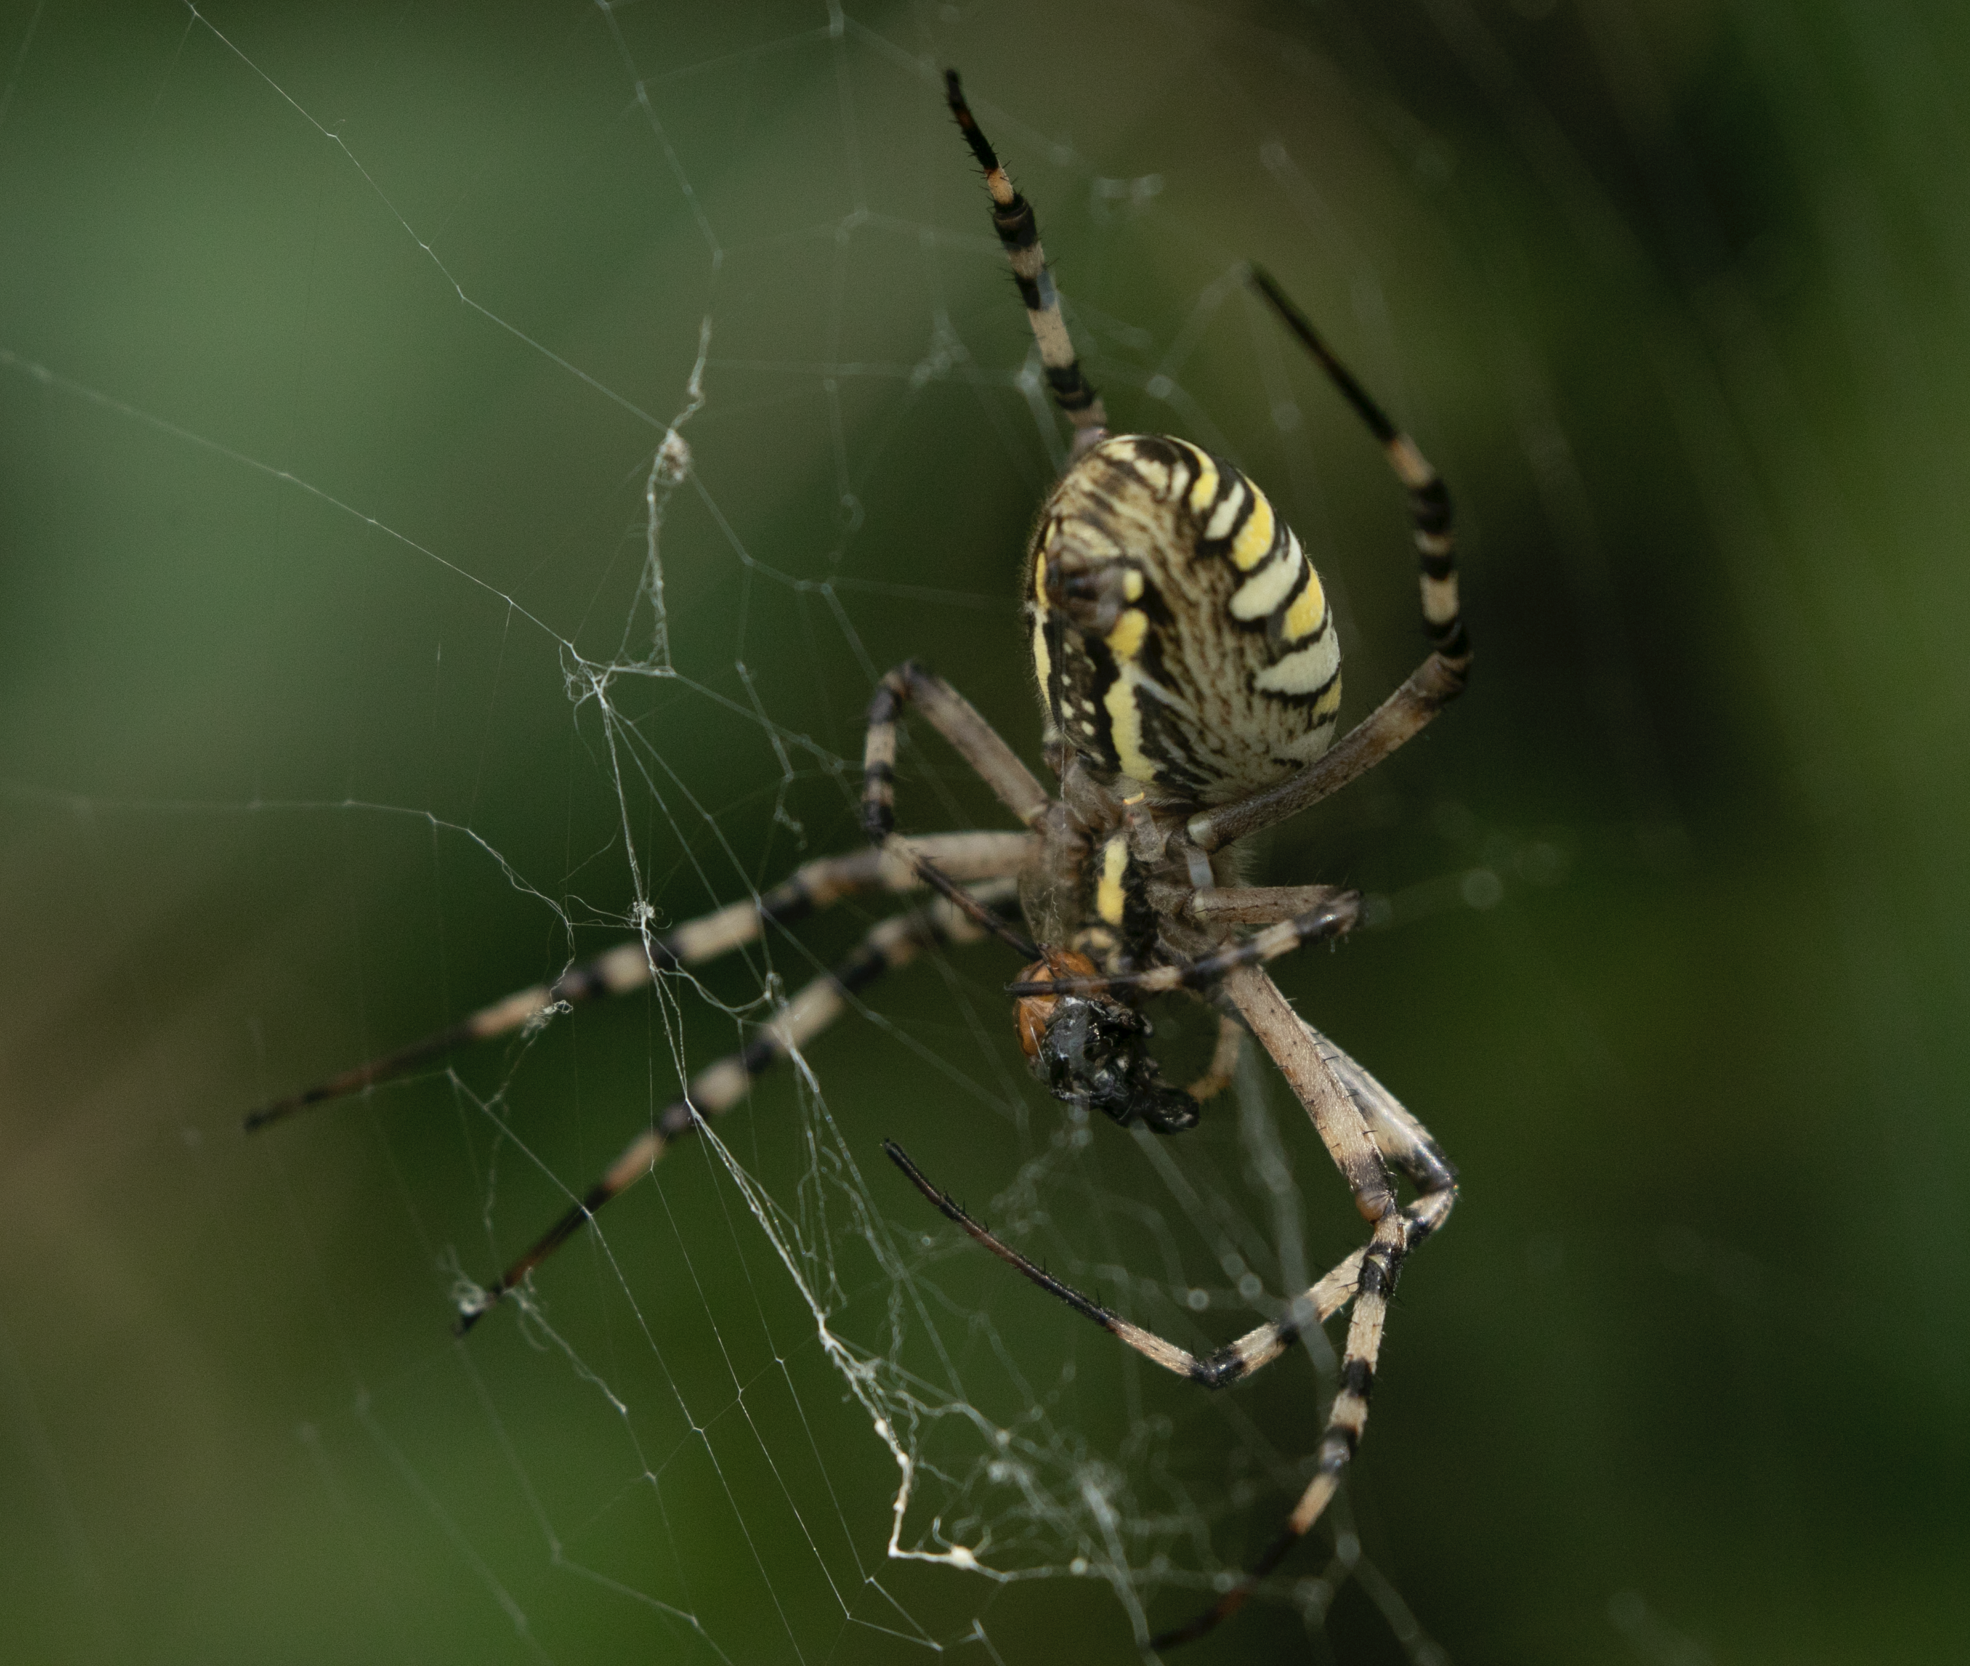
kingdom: Animalia
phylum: Arthropoda
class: Arachnida
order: Araneae
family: Araneidae
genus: Argiope
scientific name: Argiope bruennichi
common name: Wasp spider
